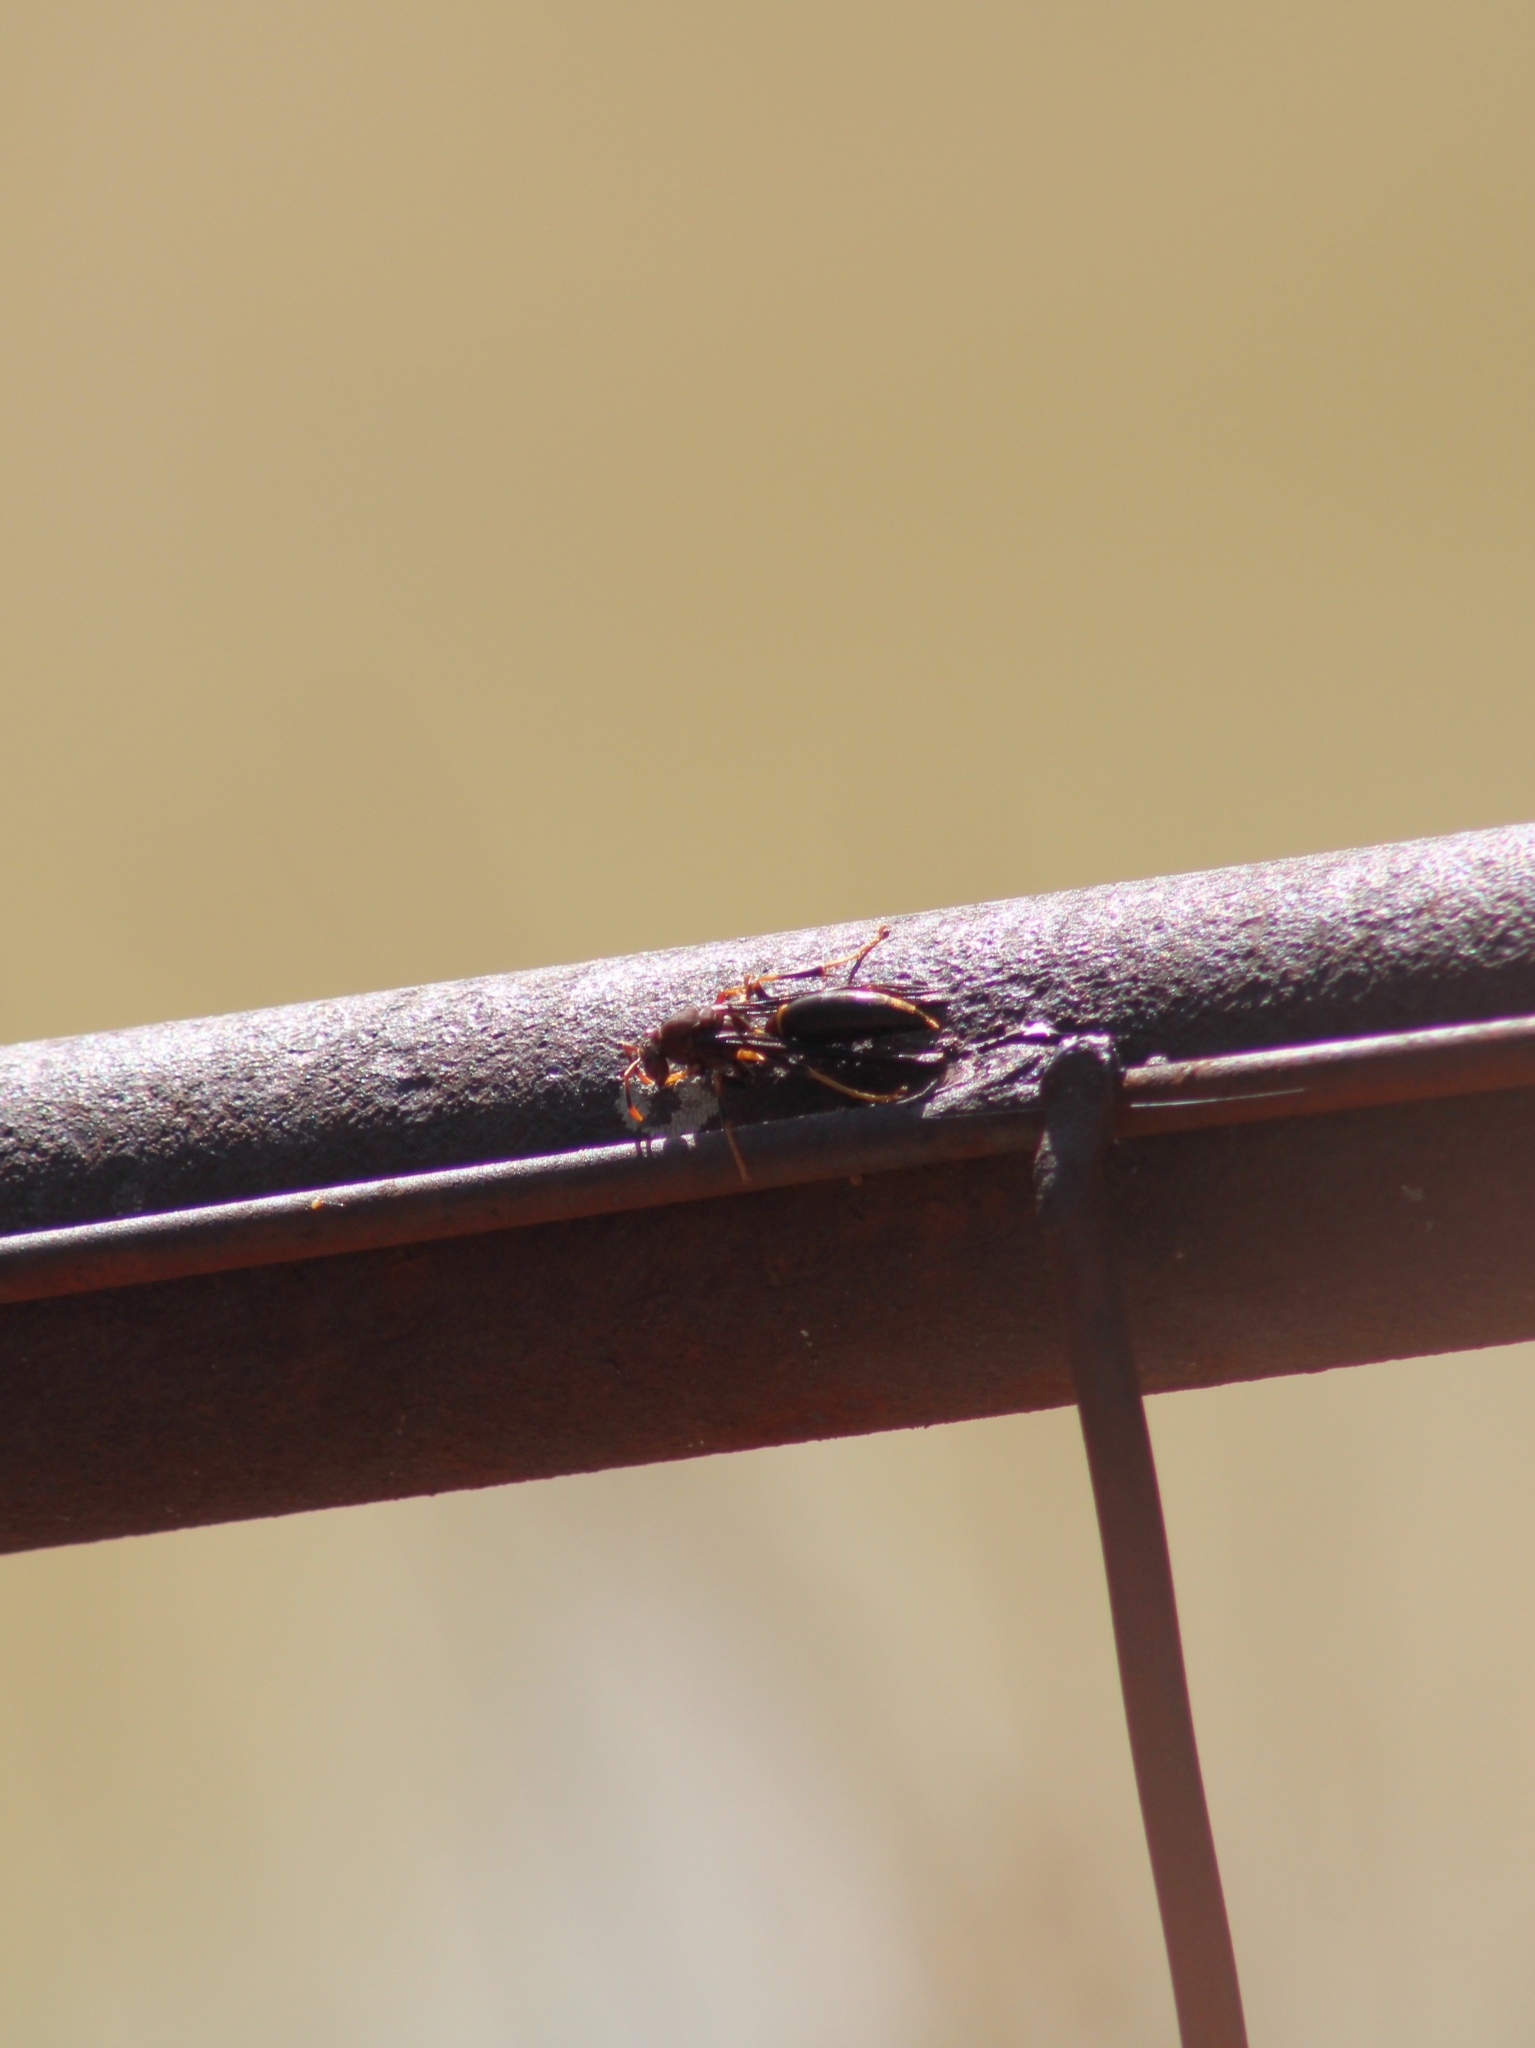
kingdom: Animalia
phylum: Arthropoda
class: Insecta
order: Hymenoptera
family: Eumenidae
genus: Polistes
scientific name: Polistes annularis
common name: Ringed paper wasp
